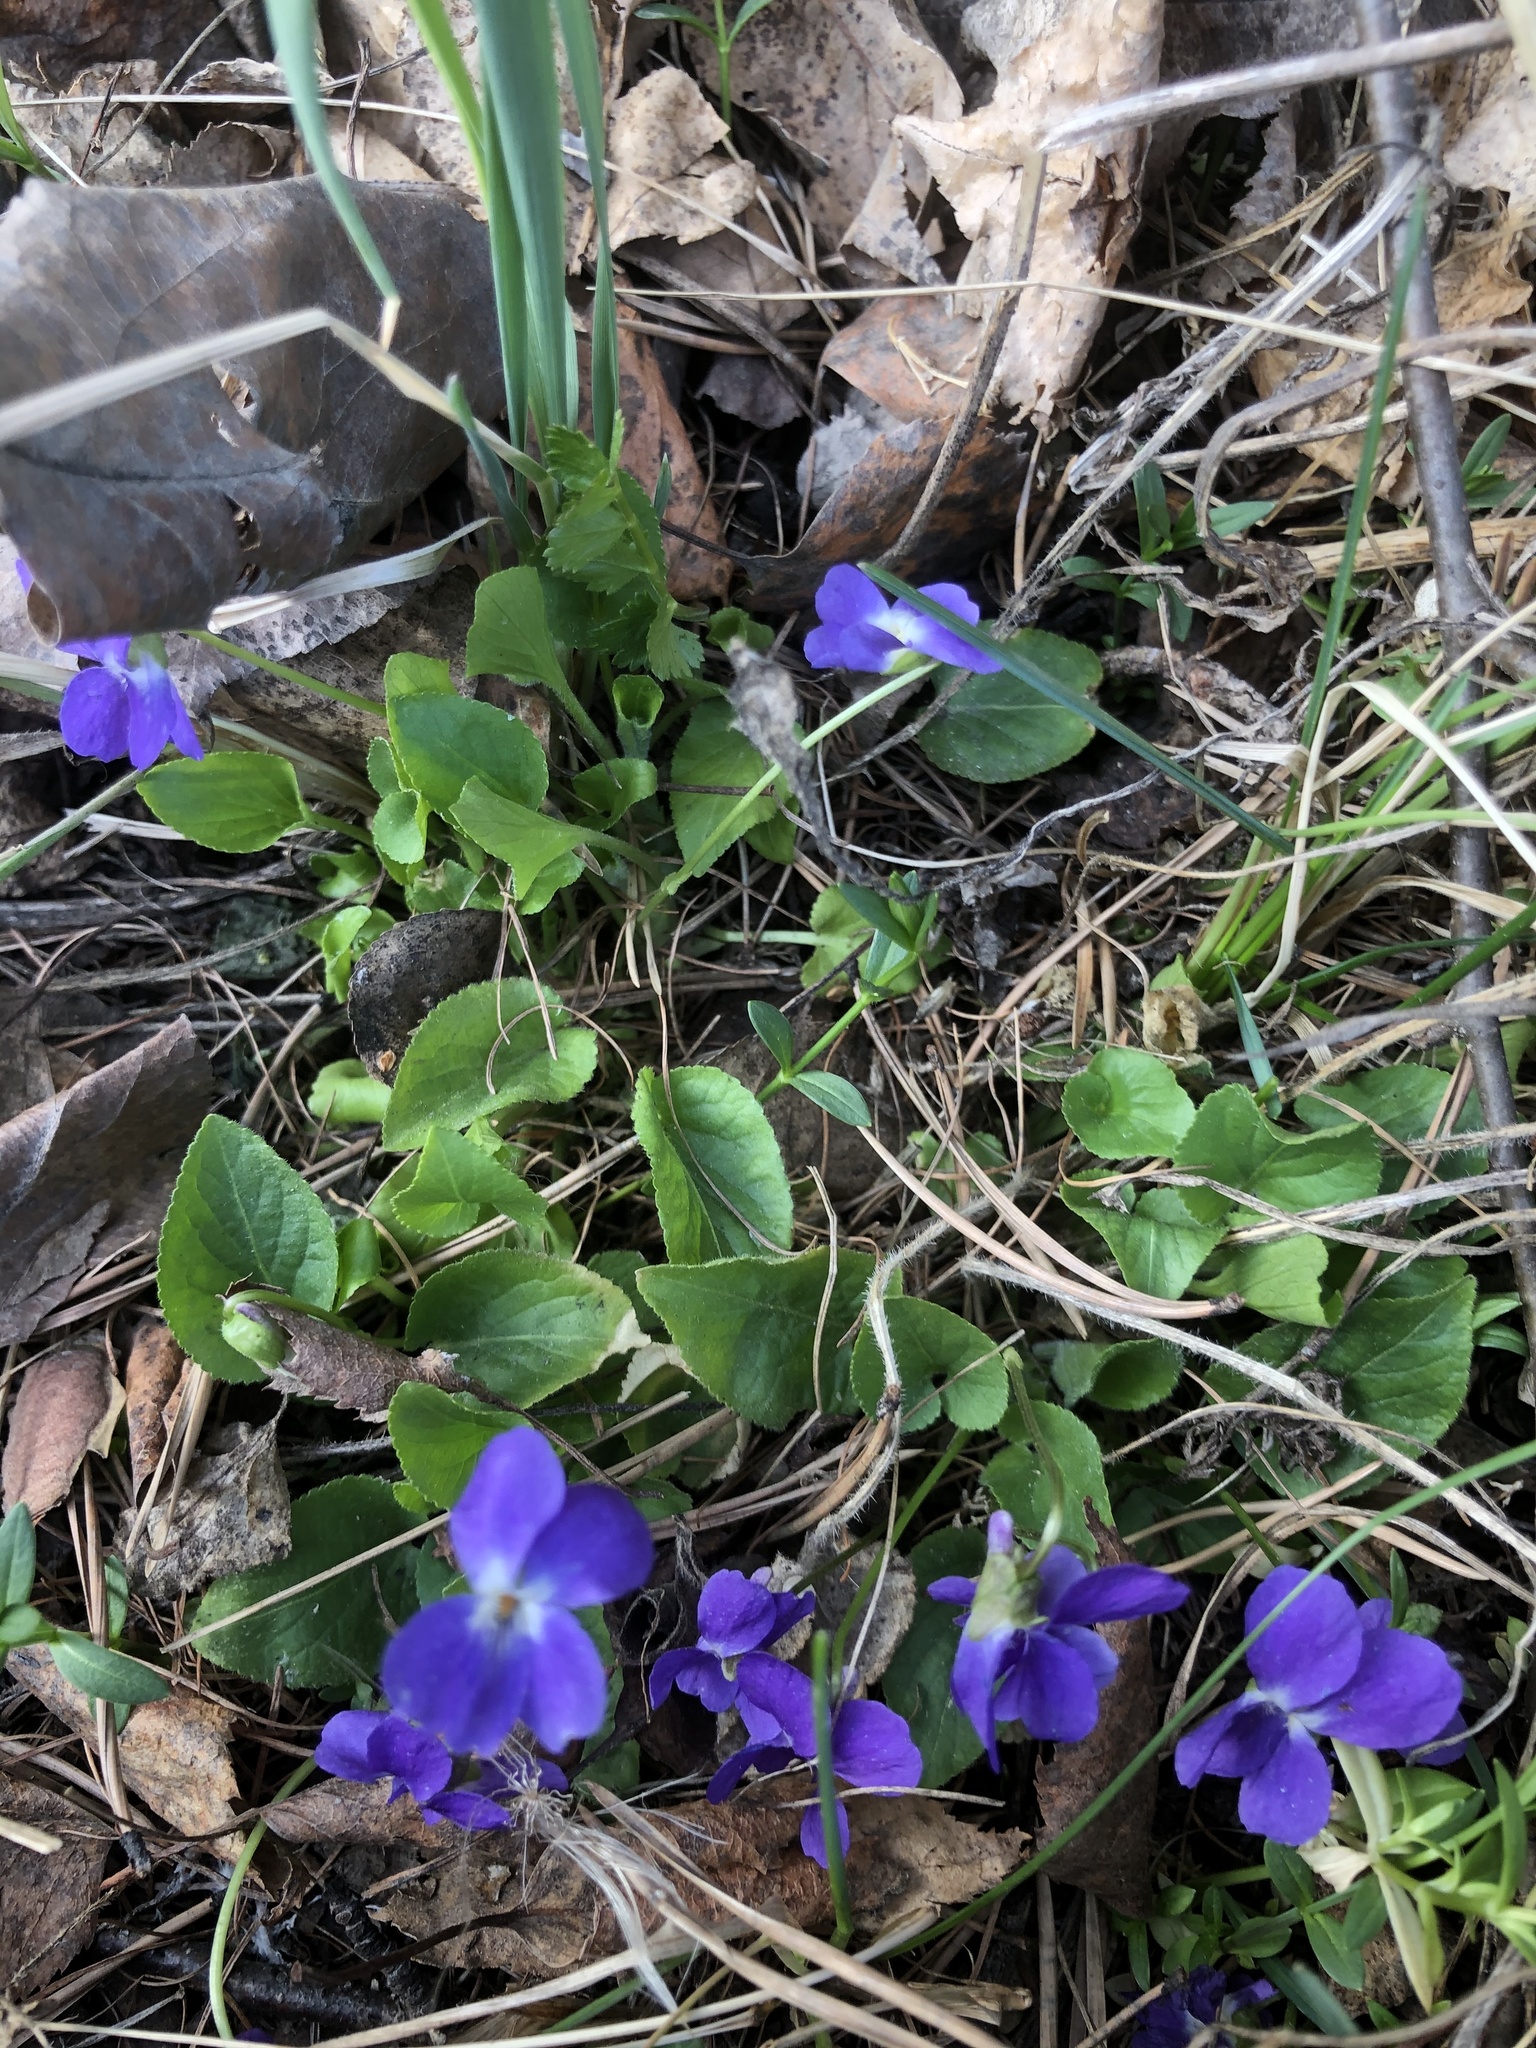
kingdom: Plantae
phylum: Tracheophyta
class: Magnoliopsida
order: Malpighiales
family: Violaceae
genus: Viola
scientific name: Viola hirta
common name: Hairy violet
